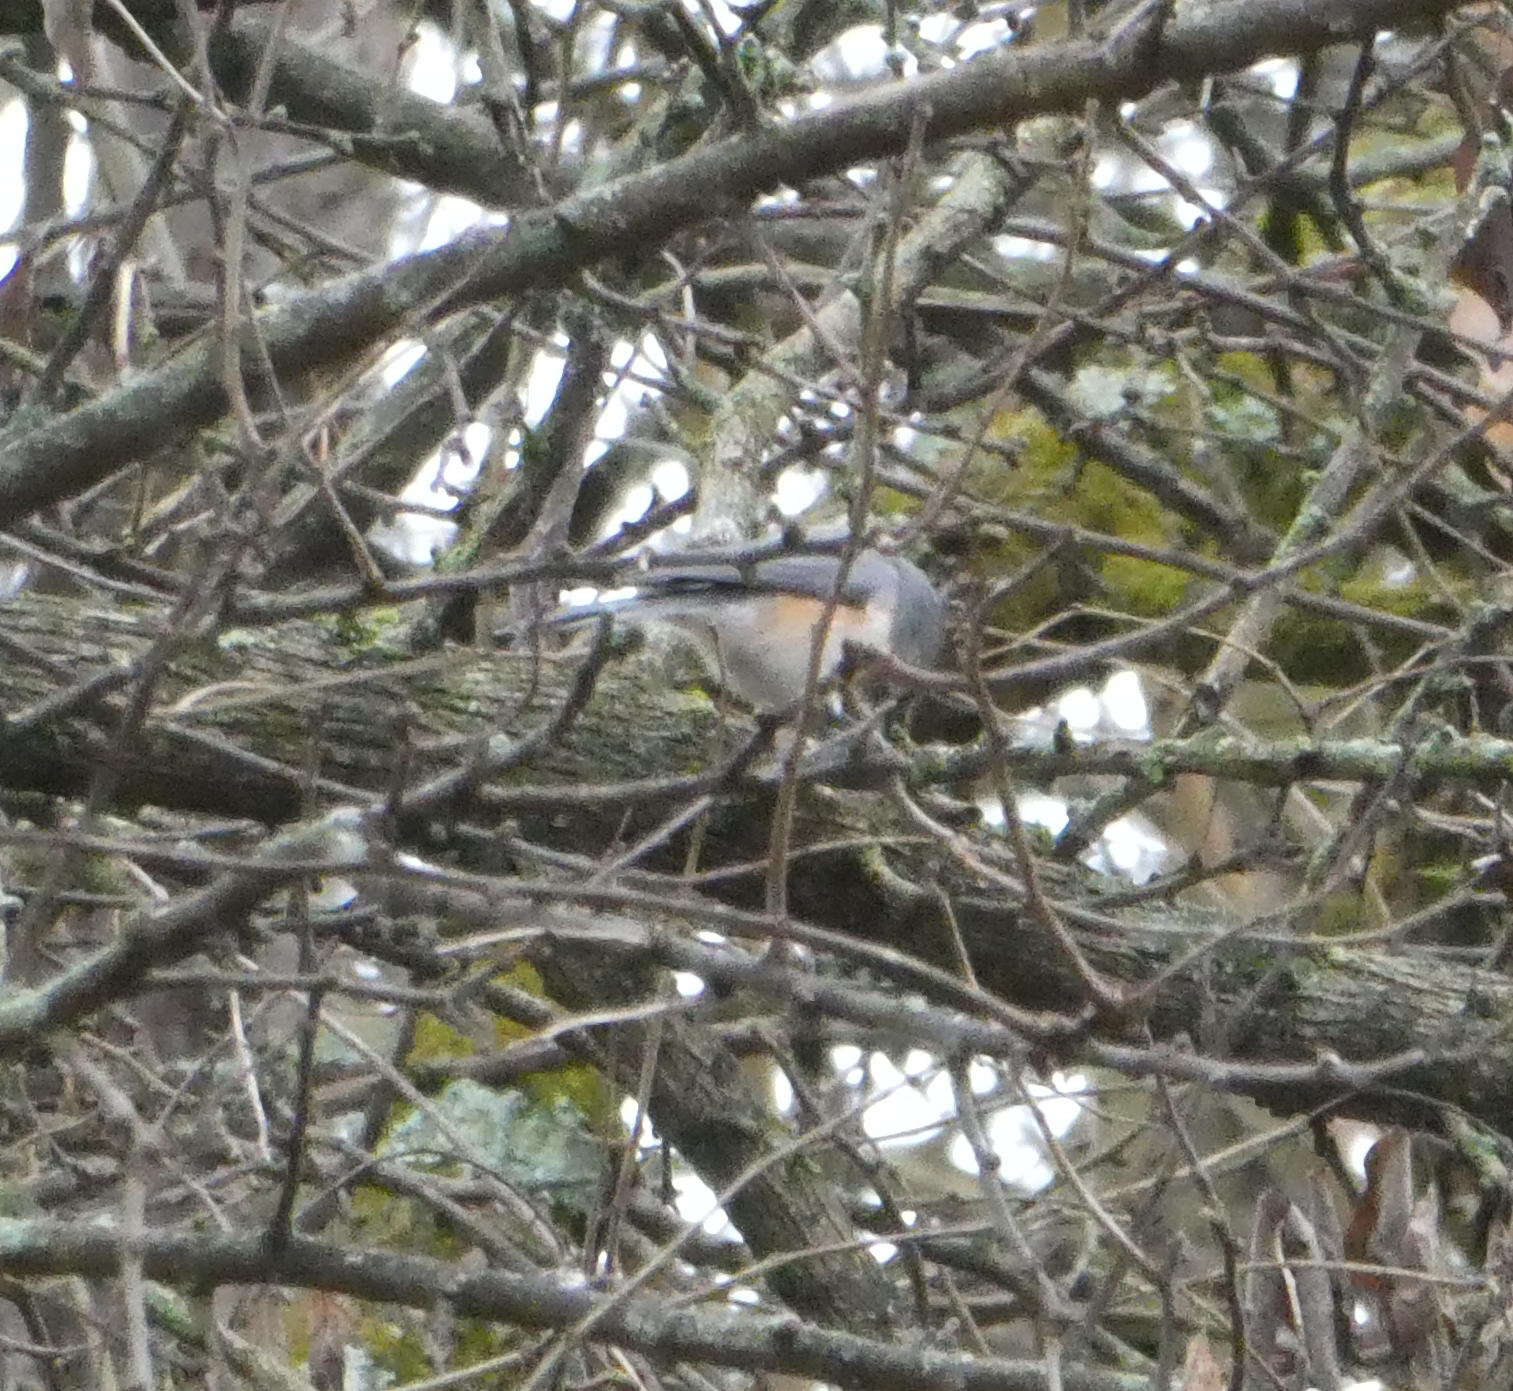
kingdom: Animalia
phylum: Chordata
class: Aves
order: Passeriformes
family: Paridae
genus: Baeolophus
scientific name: Baeolophus bicolor
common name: Tufted titmouse
